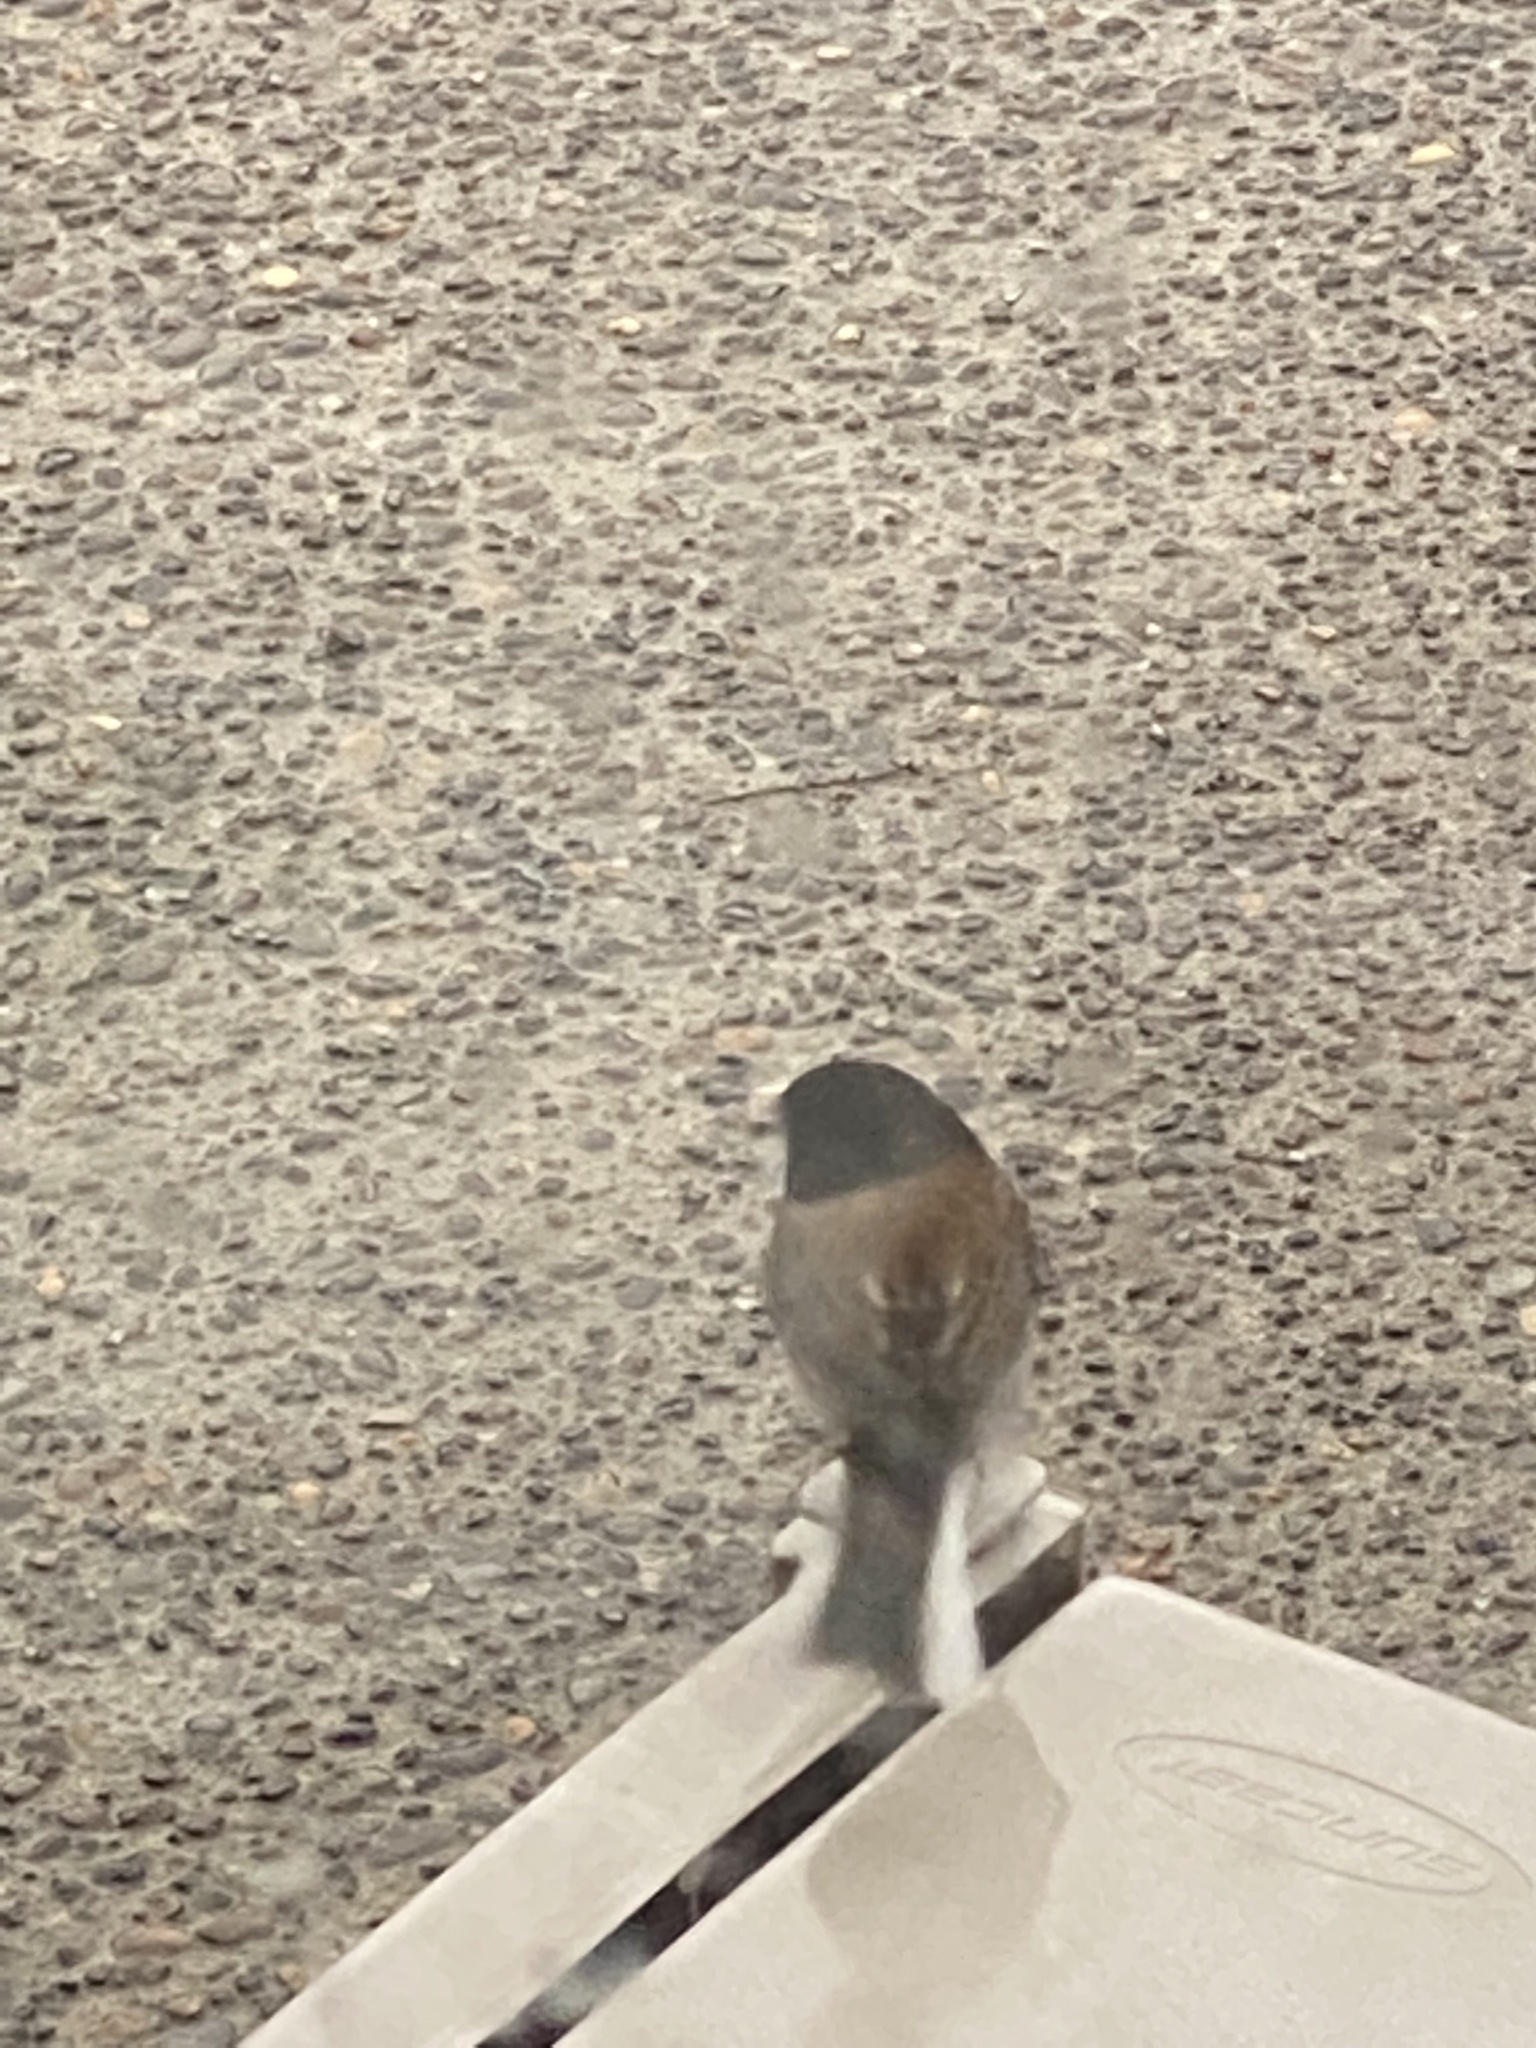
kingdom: Animalia
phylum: Chordata
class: Aves
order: Passeriformes
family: Passerellidae
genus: Junco
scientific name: Junco hyemalis
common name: Dark-eyed junco
